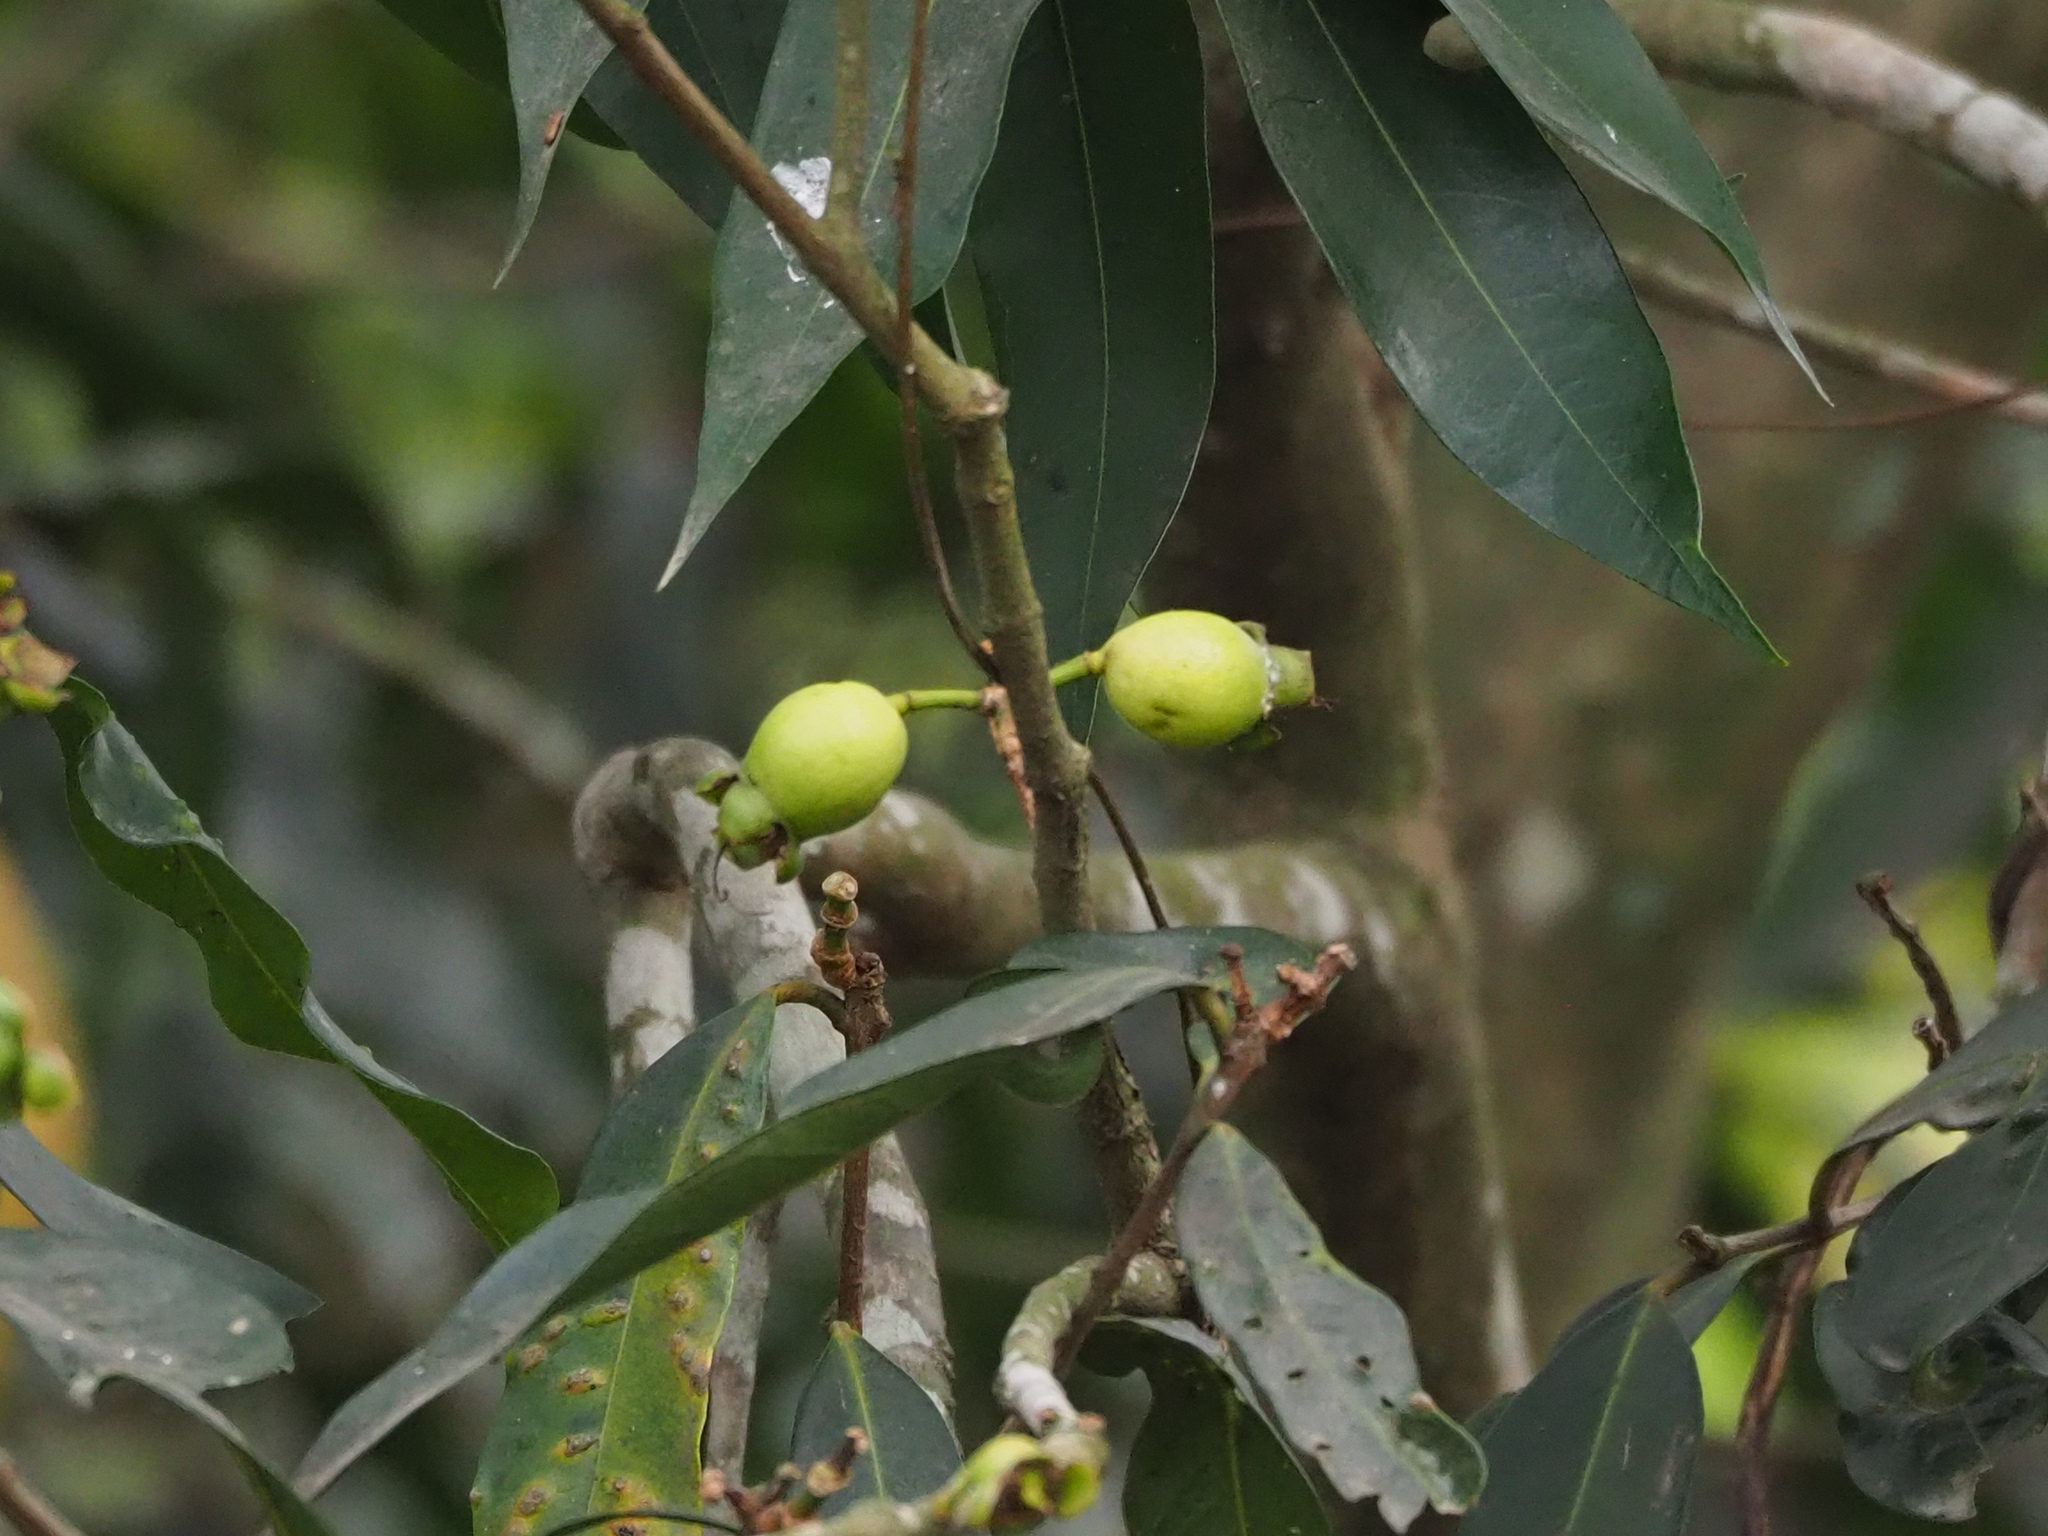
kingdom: Plantae
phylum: Tracheophyta
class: Magnoliopsida
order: Myrtales
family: Myrtaceae
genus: Syzygium
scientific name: Syzygium jambos
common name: Malabar plum
